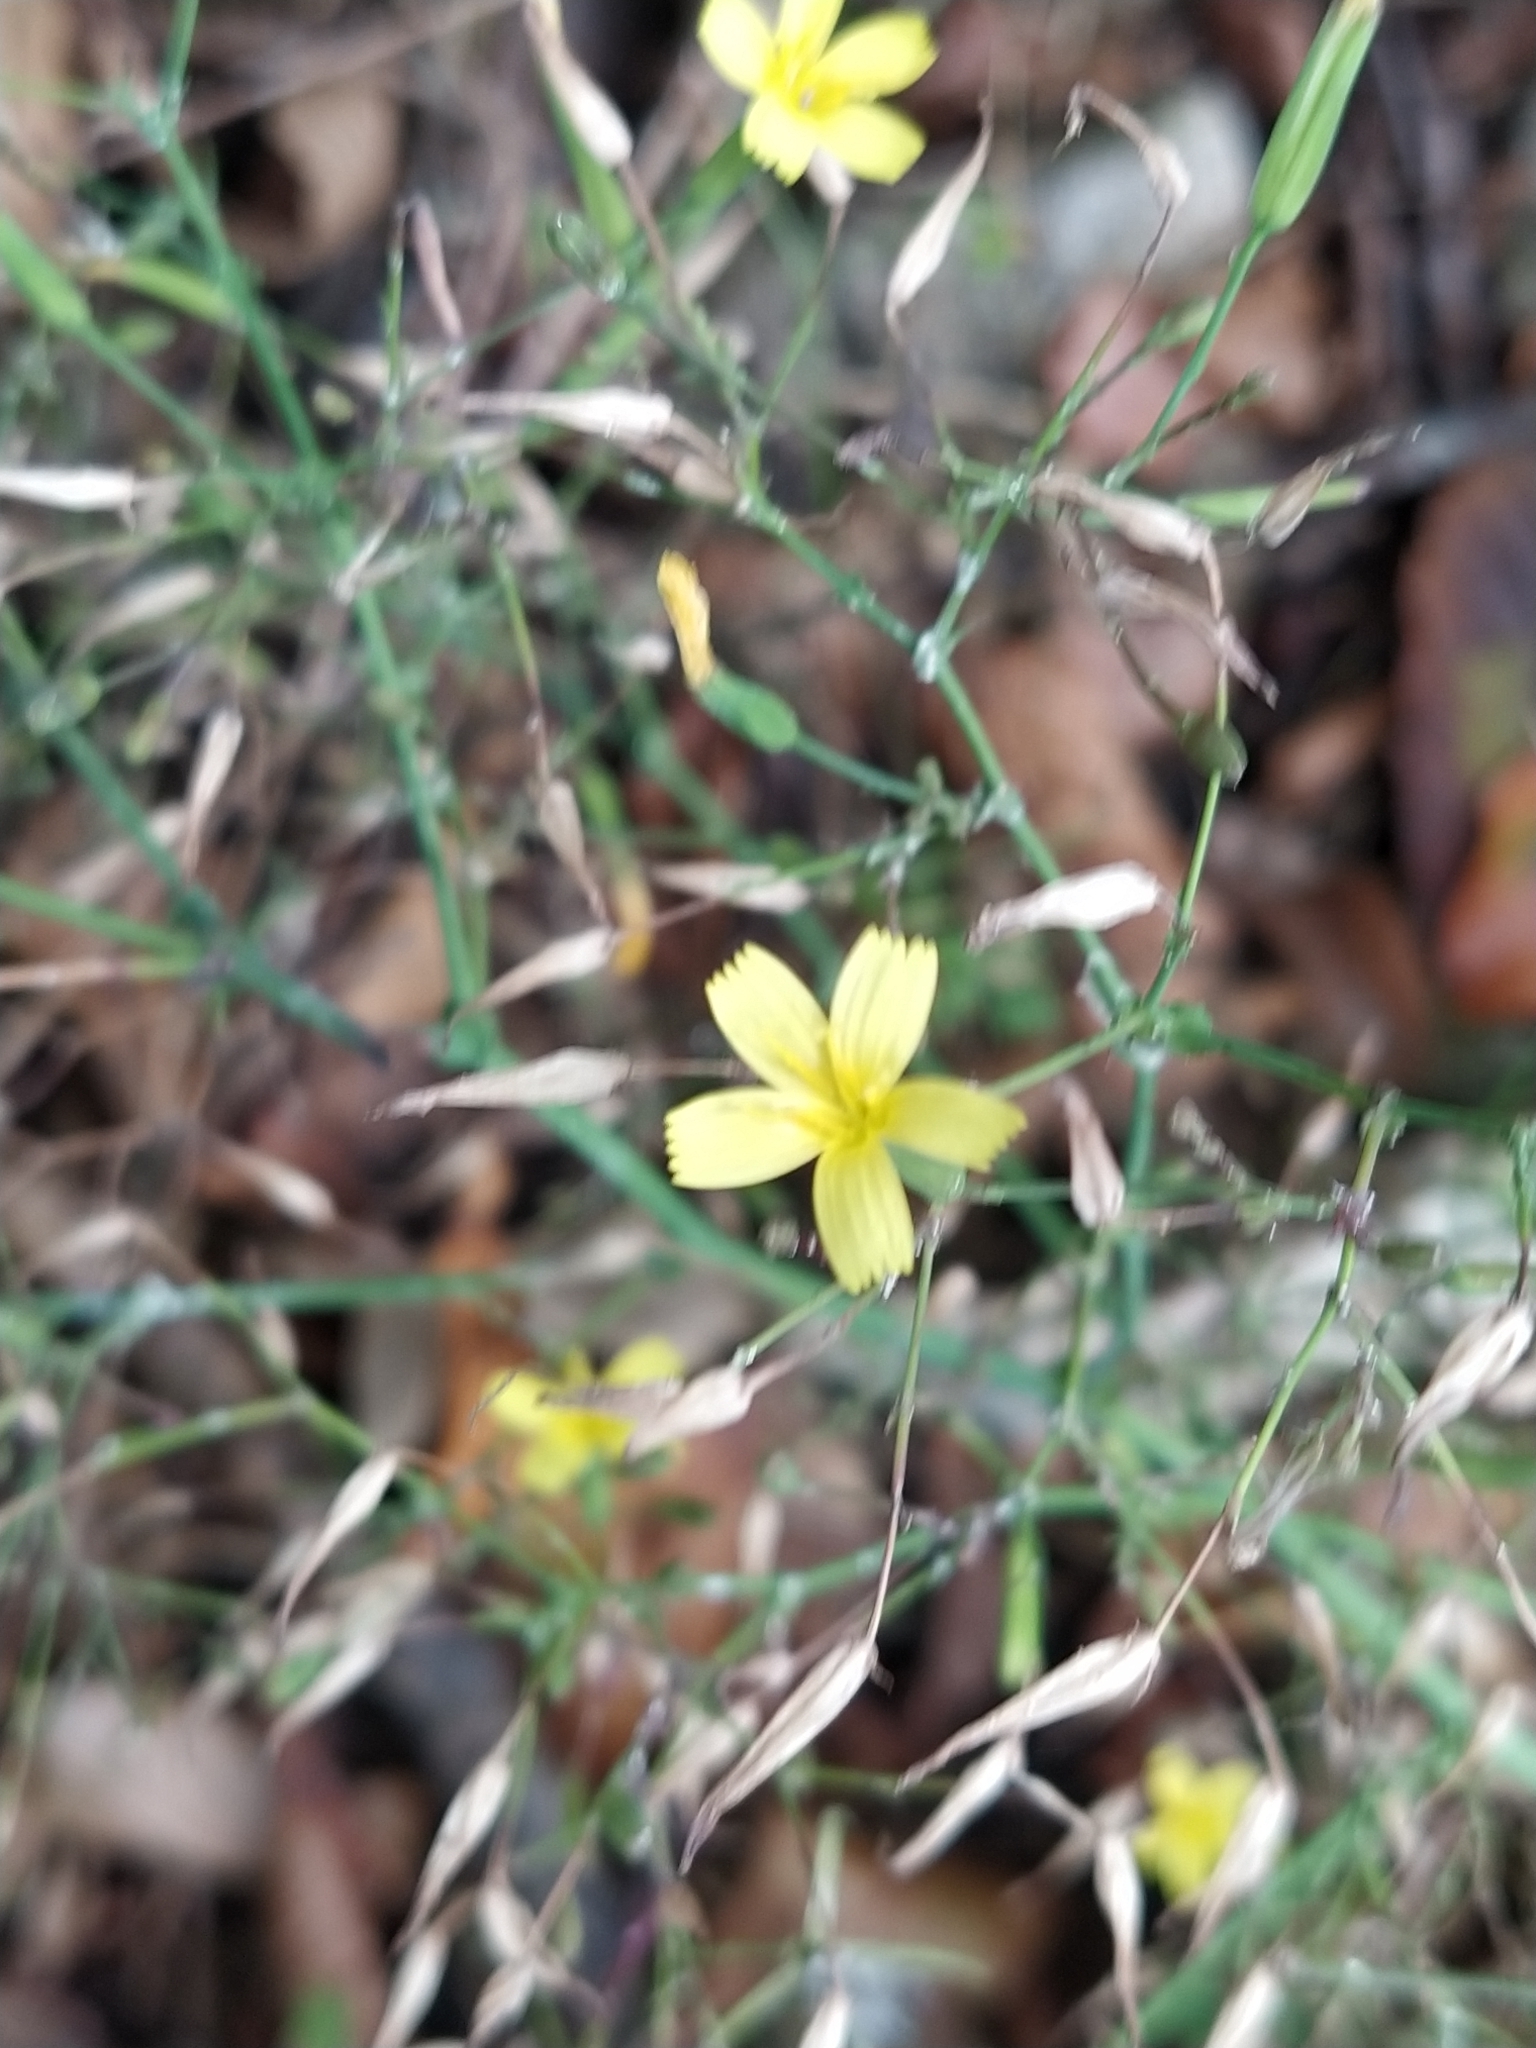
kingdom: Plantae
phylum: Tracheophyta
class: Magnoliopsida
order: Asterales
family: Asteraceae
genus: Mycelis
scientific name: Mycelis muralis
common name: Wall lettuce
